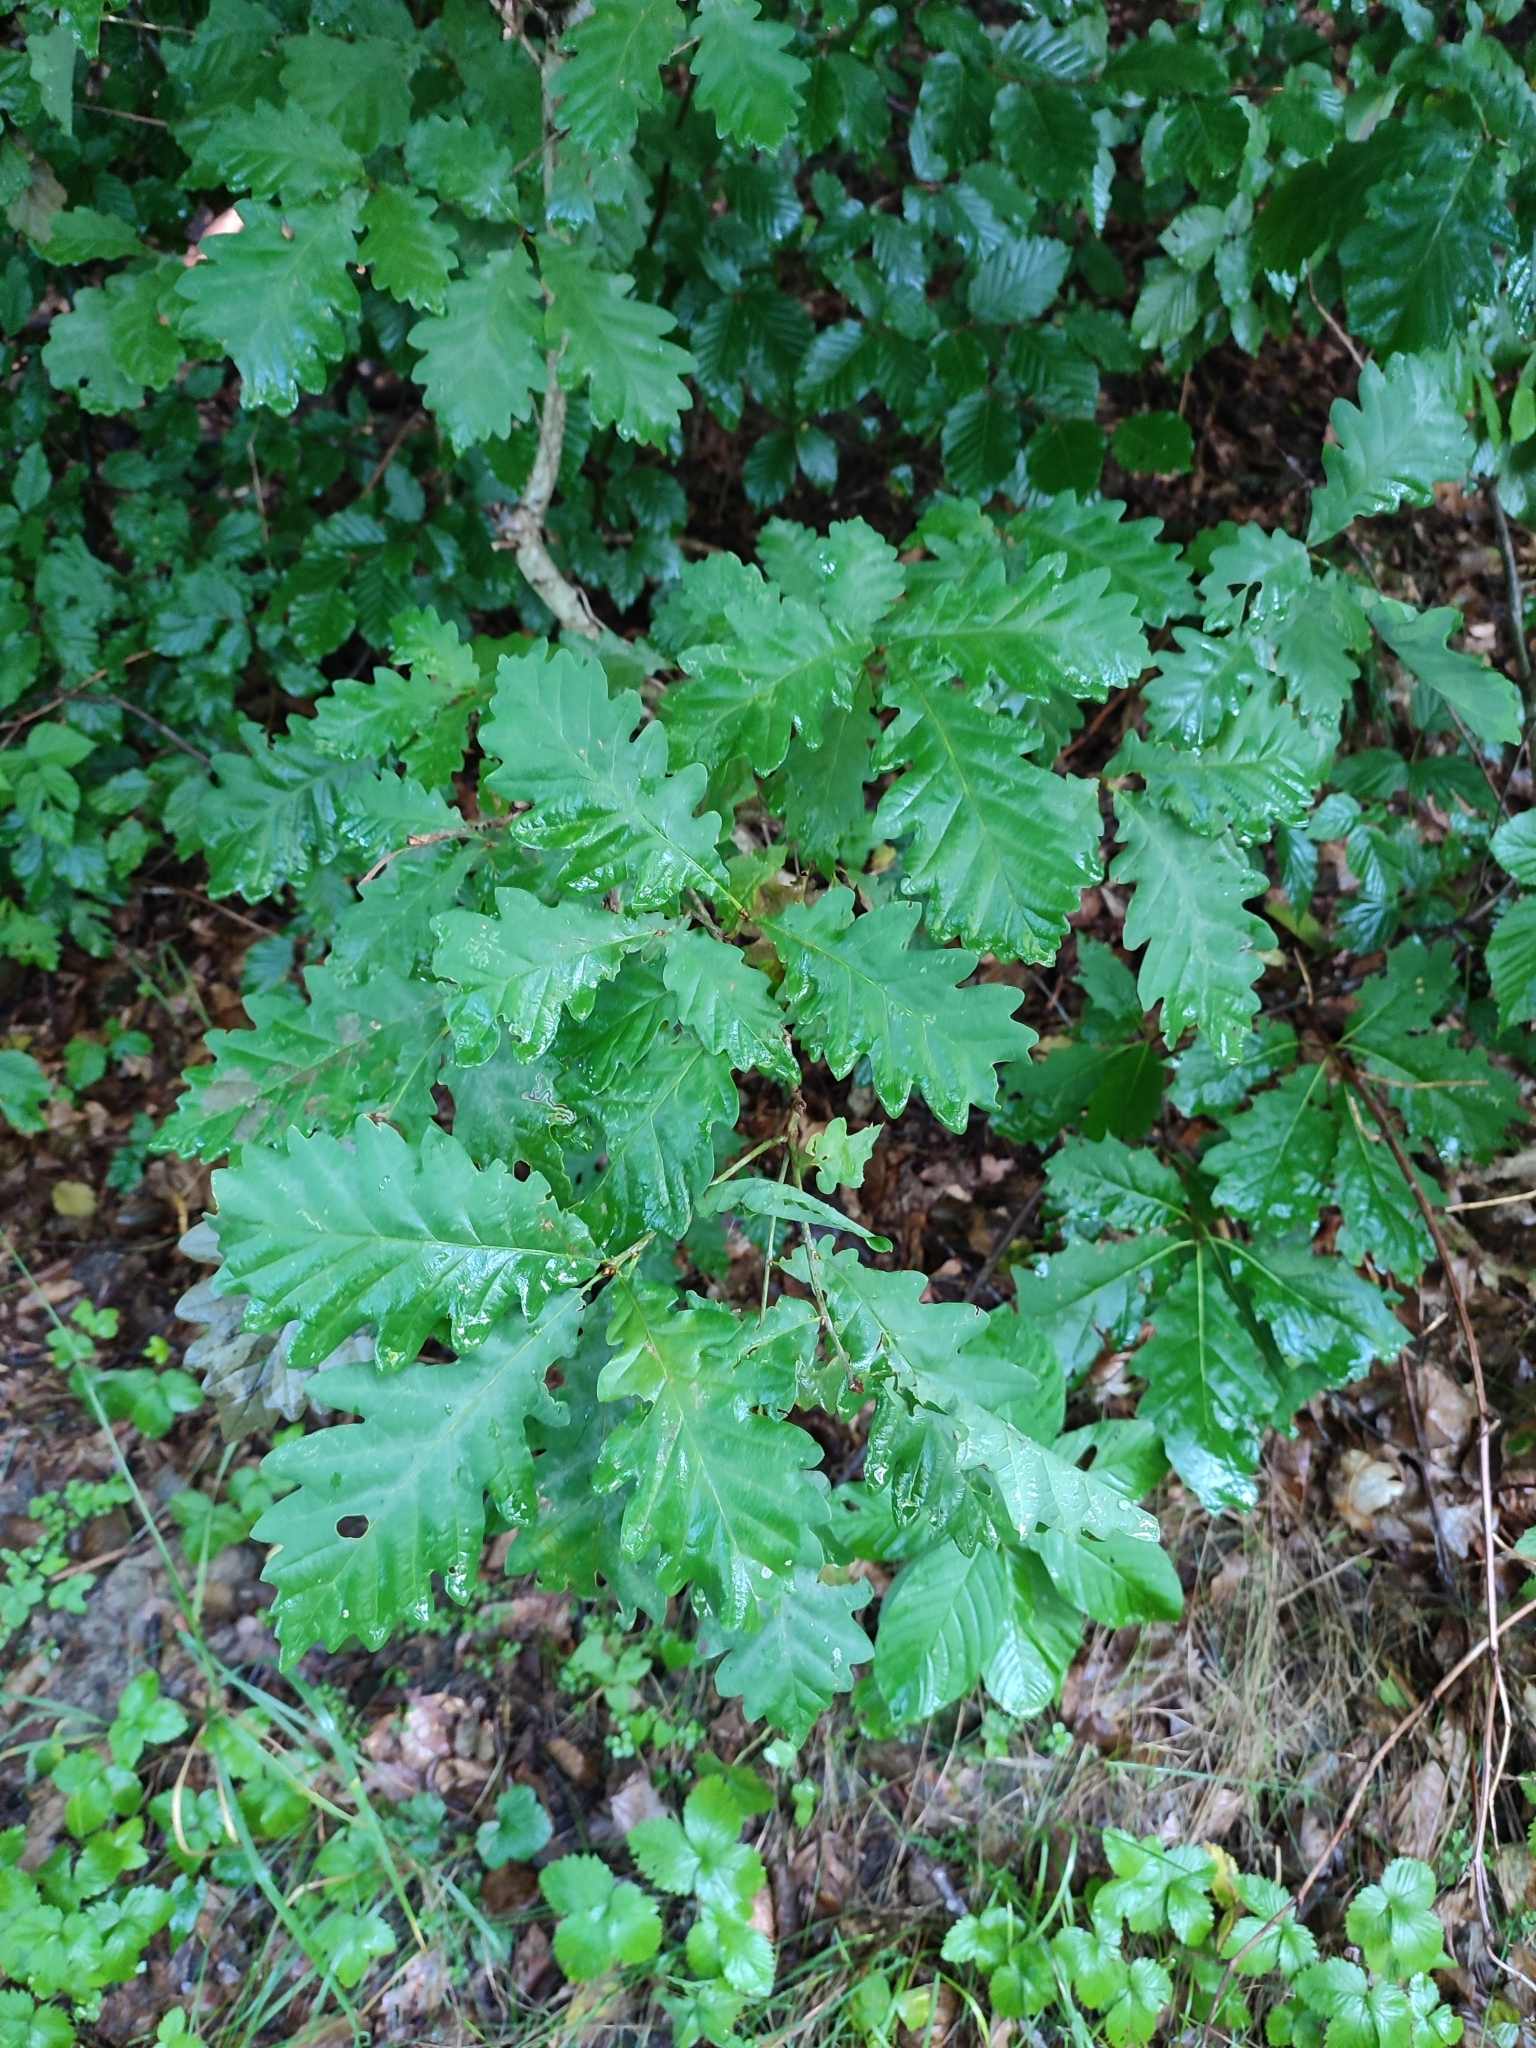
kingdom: Plantae
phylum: Tracheophyta
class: Magnoliopsida
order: Fagales
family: Fagaceae
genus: Quercus
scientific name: Quercus petraea
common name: Sessile oak
